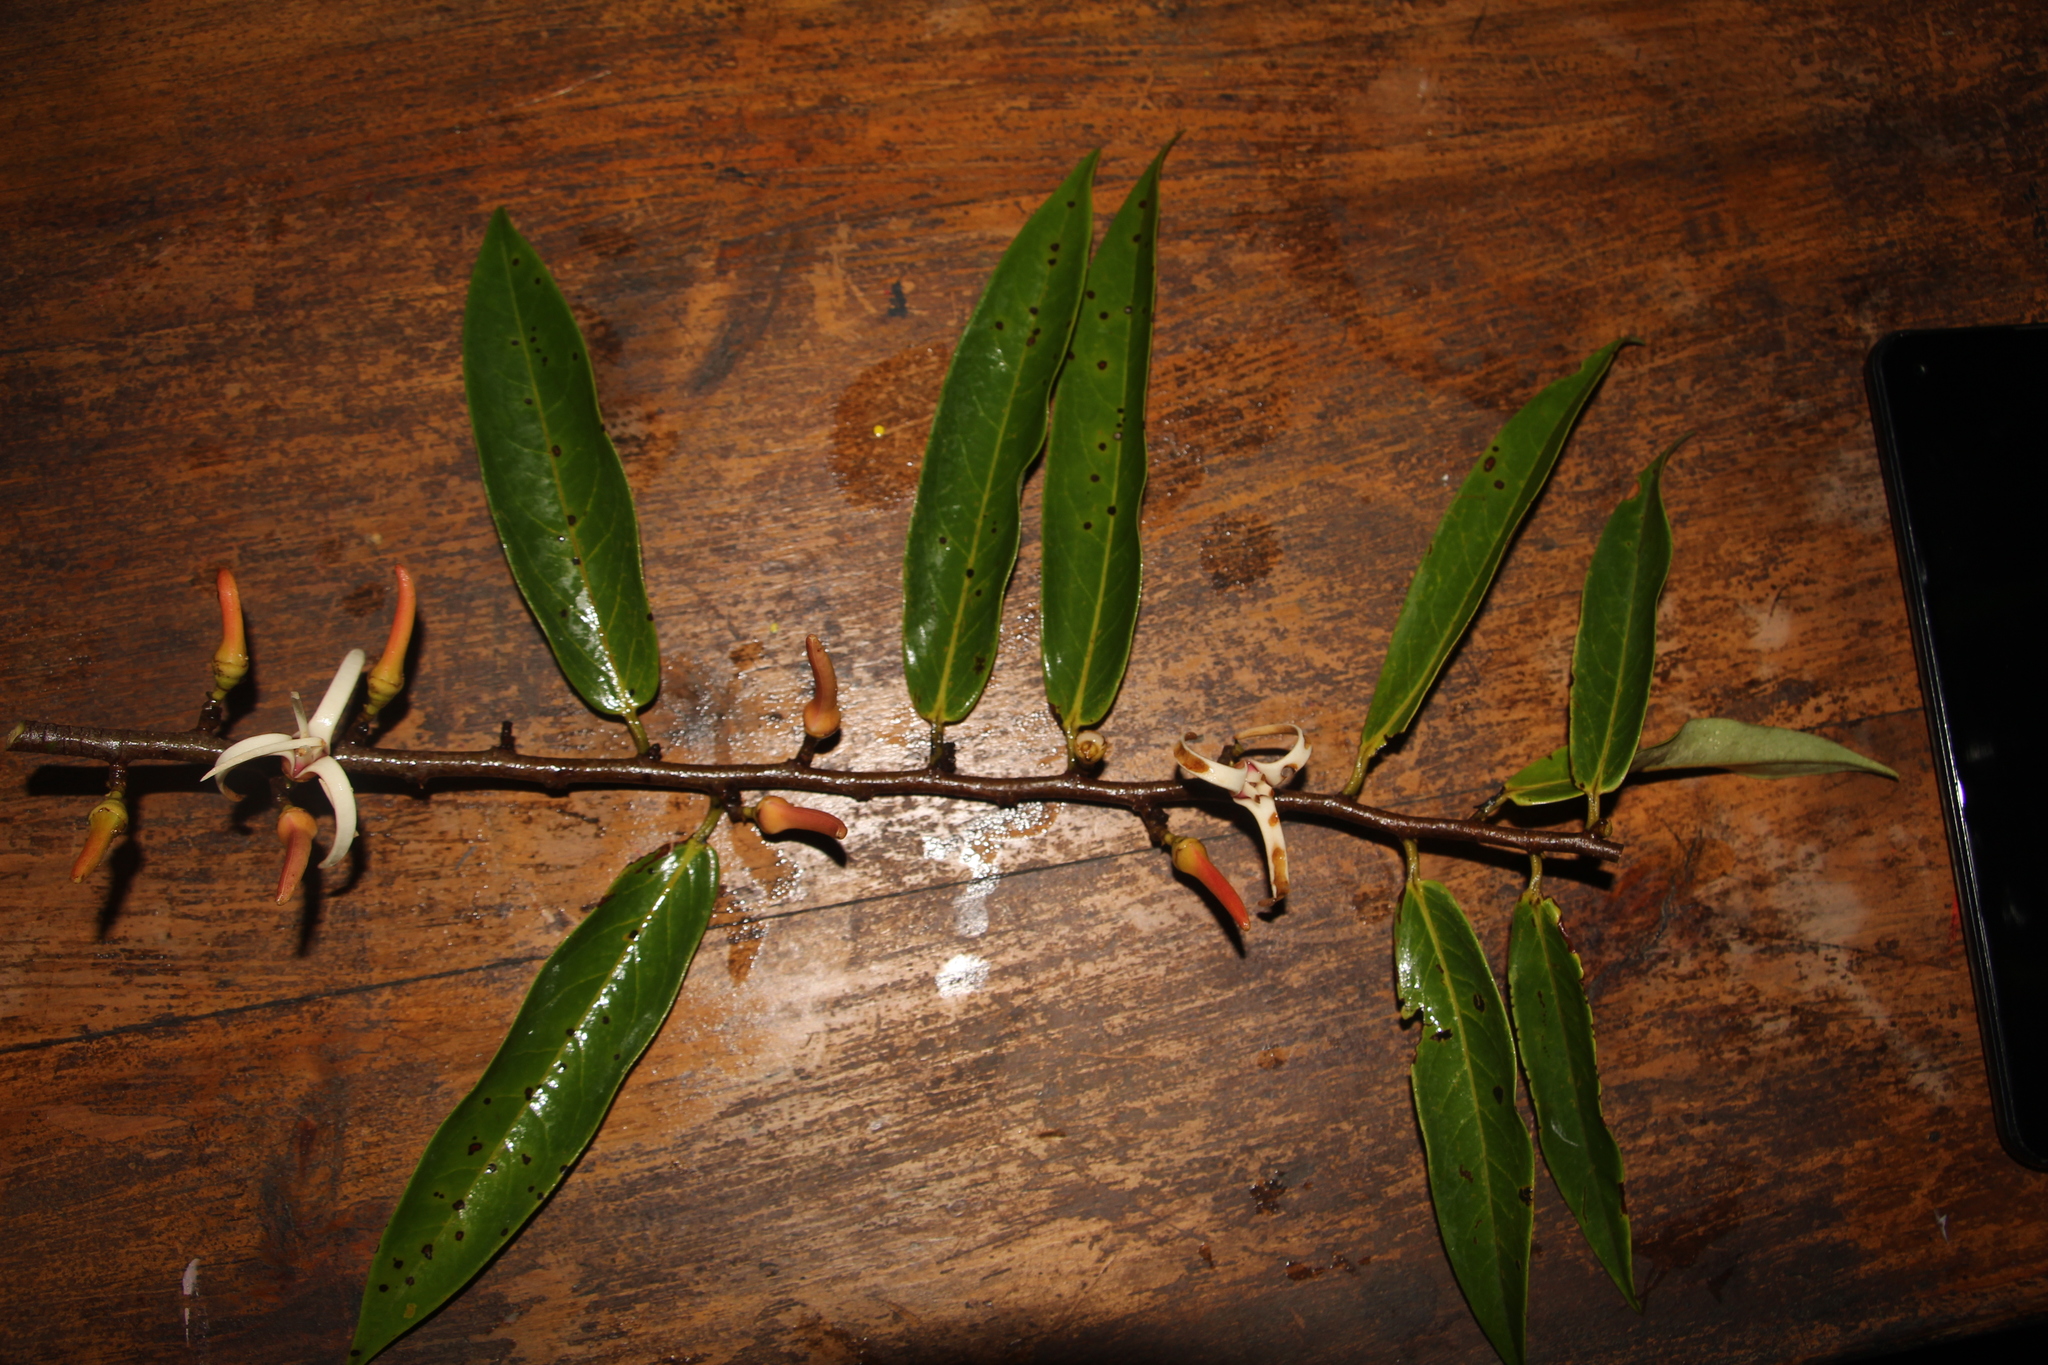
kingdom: Plantae
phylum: Tracheophyta
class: Magnoliopsida
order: Magnoliales
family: Annonaceae
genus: Xylopia
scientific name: Xylopia aromatica
